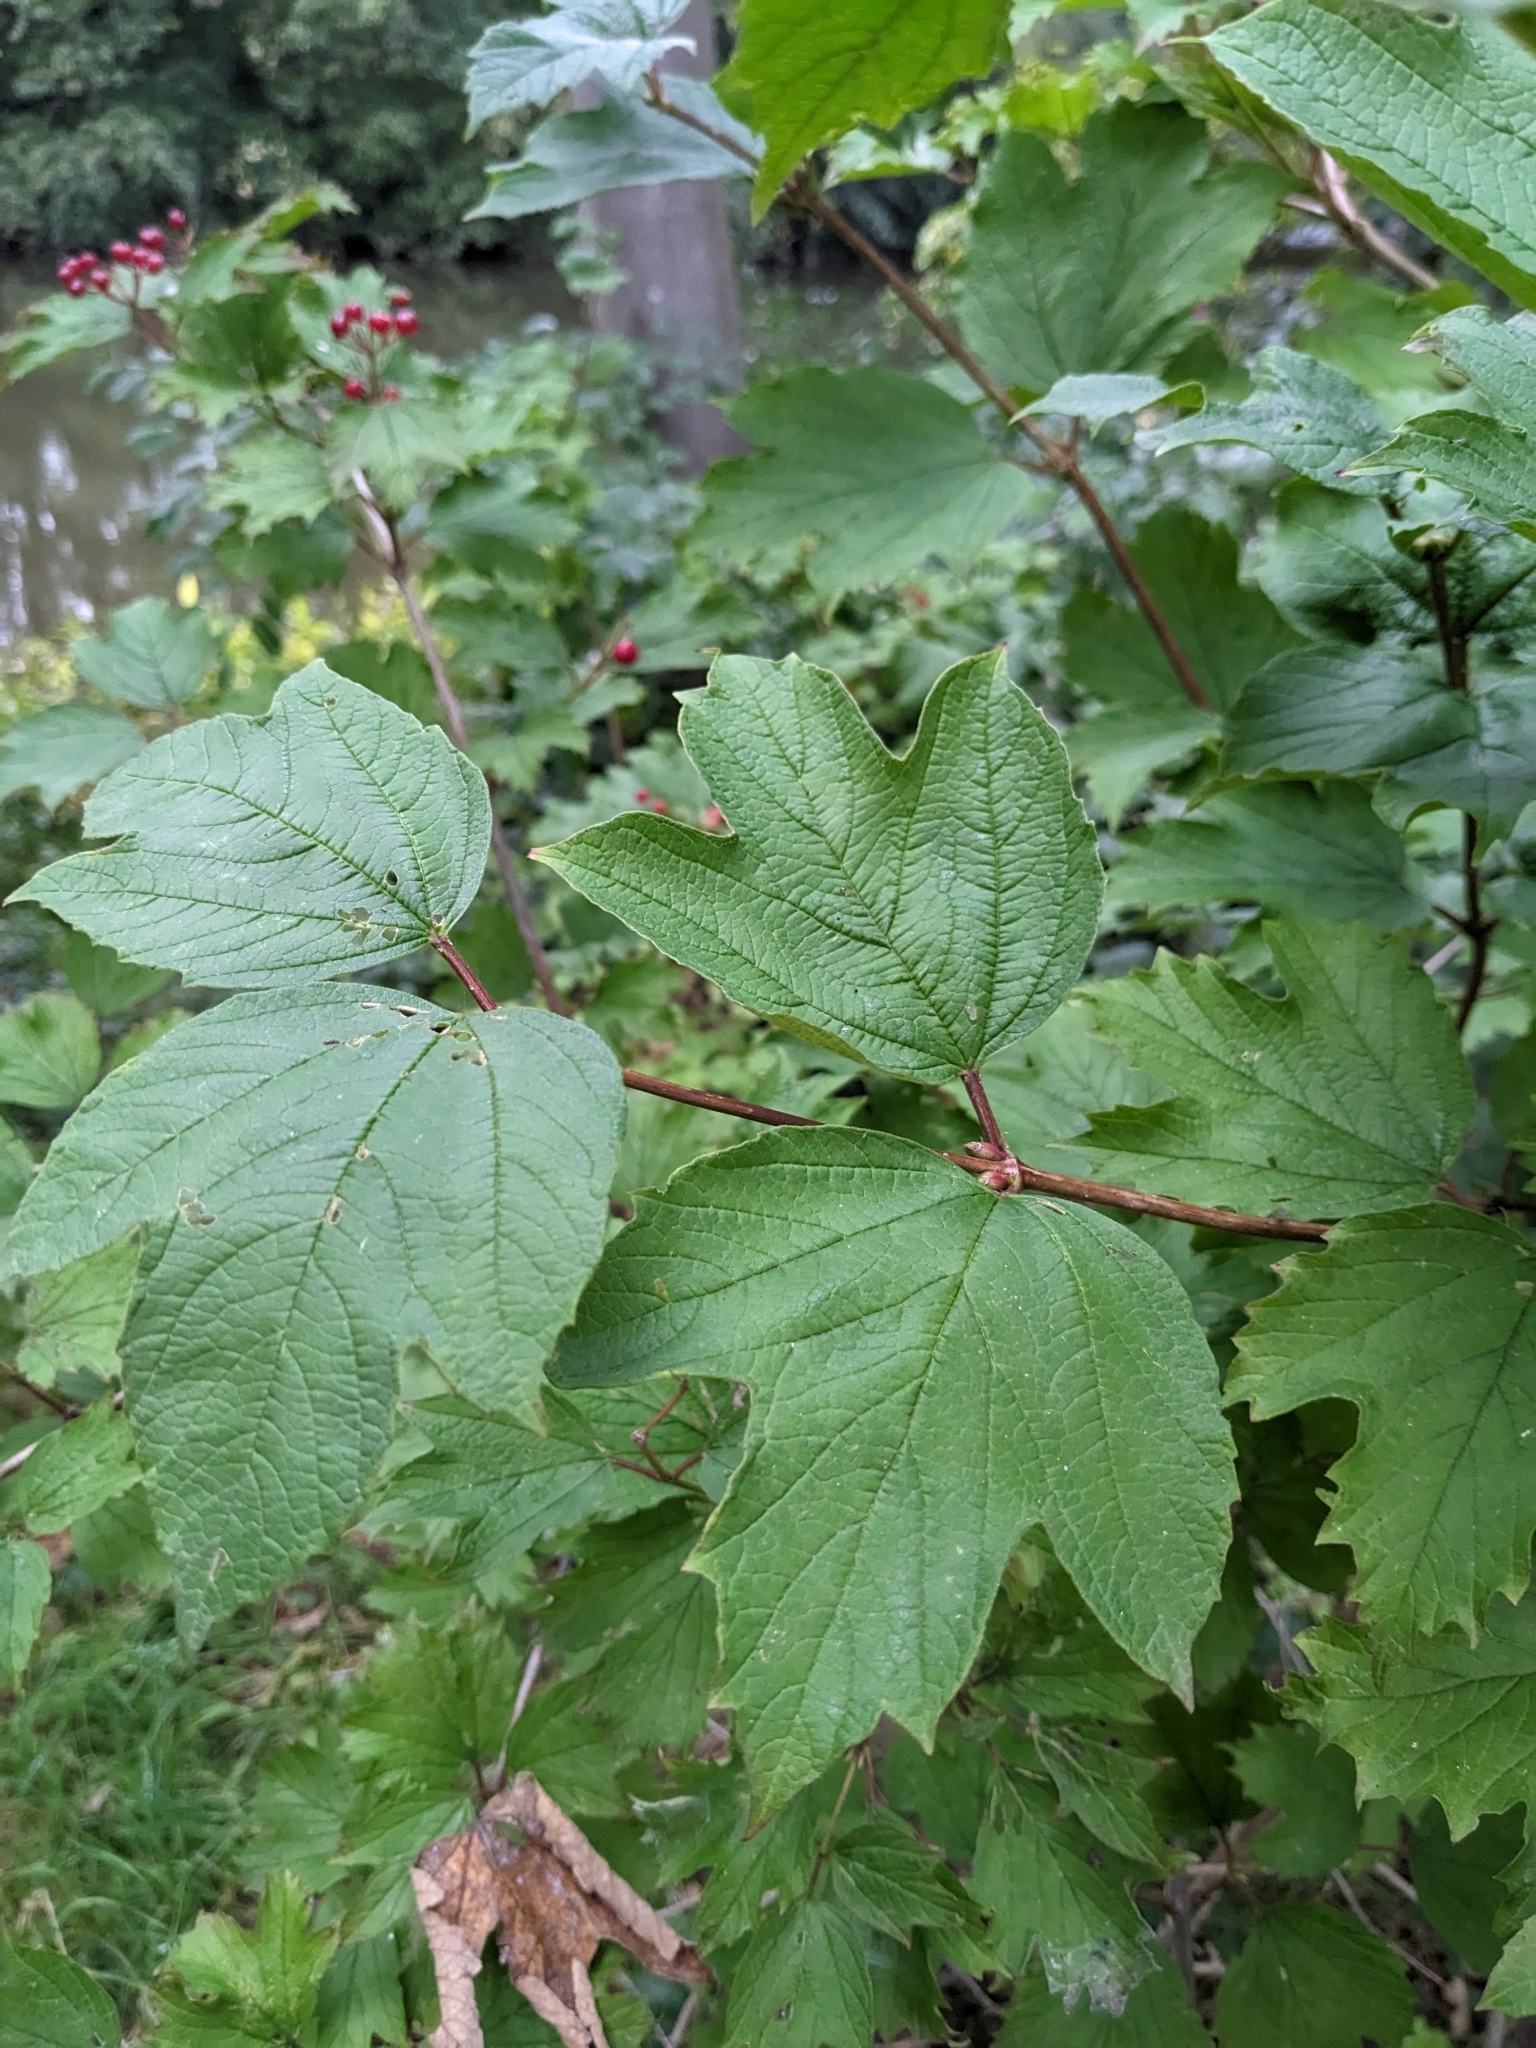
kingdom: Plantae
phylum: Tracheophyta
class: Magnoliopsida
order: Dipsacales
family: Viburnaceae
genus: Viburnum
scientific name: Viburnum opulus
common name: Guelder-rose
